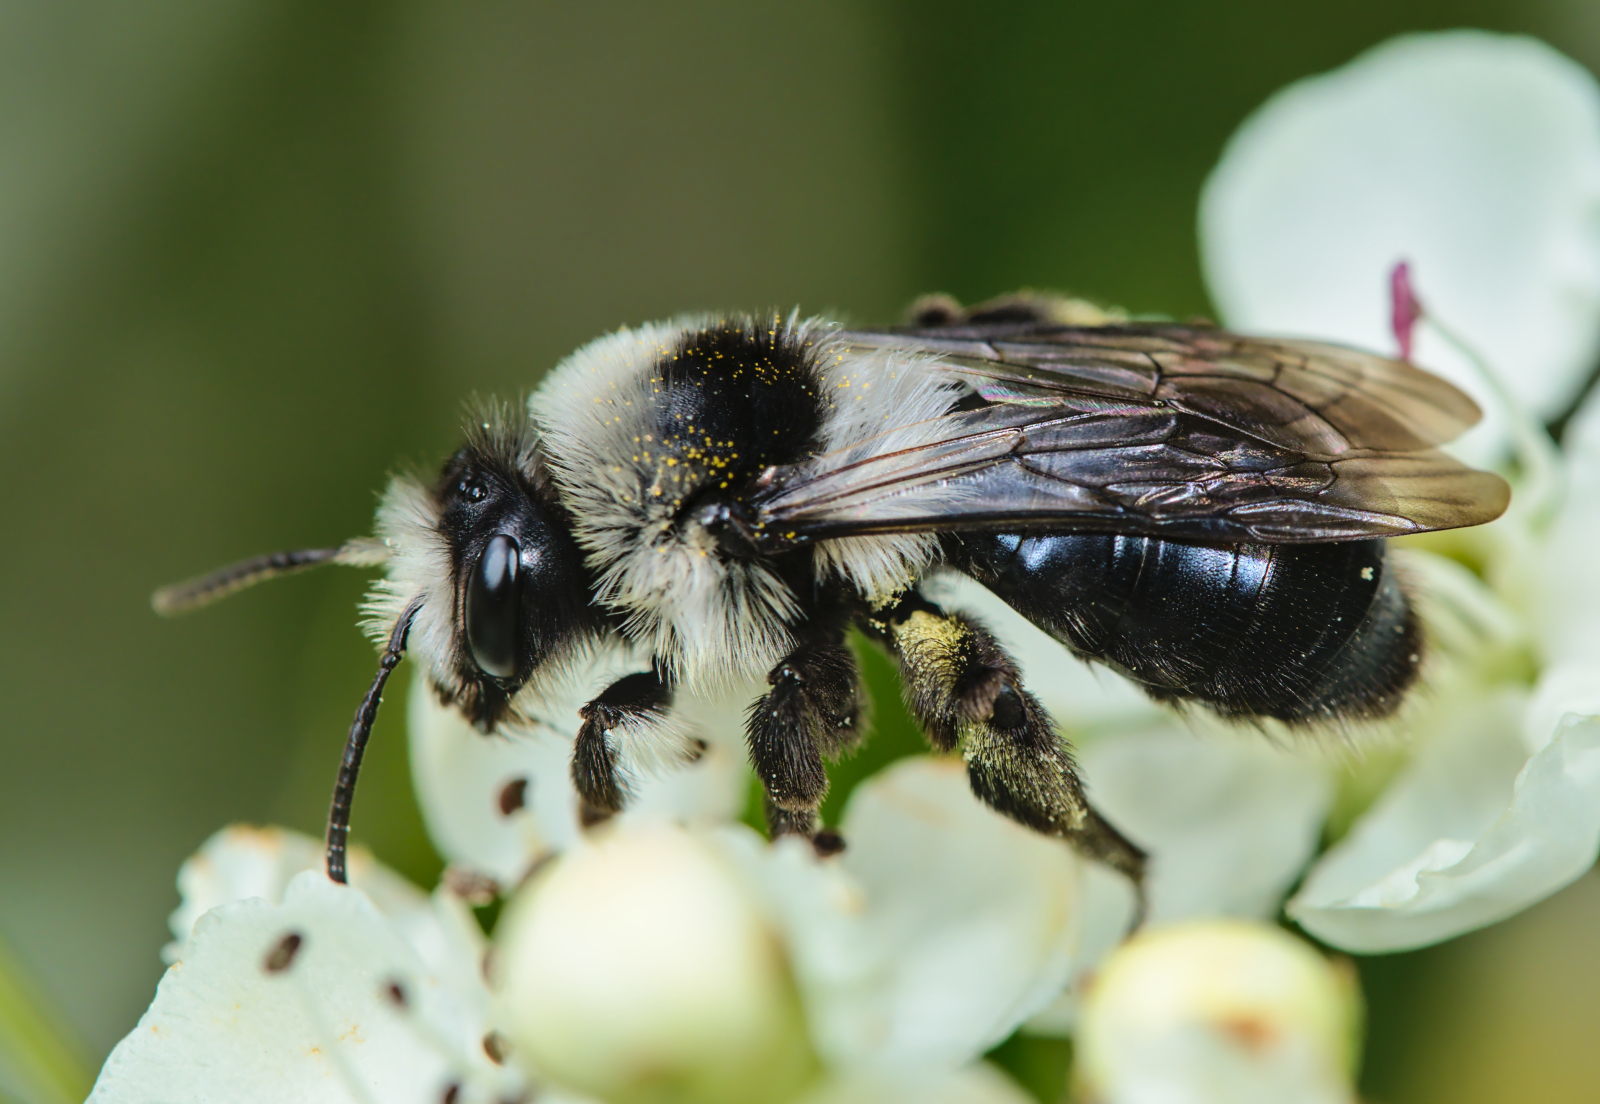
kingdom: Animalia
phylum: Arthropoda
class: Insecta
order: Hymenoptera
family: Andrenidae
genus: Andrena
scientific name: Andrena cineraria
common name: Ashy mining bee
